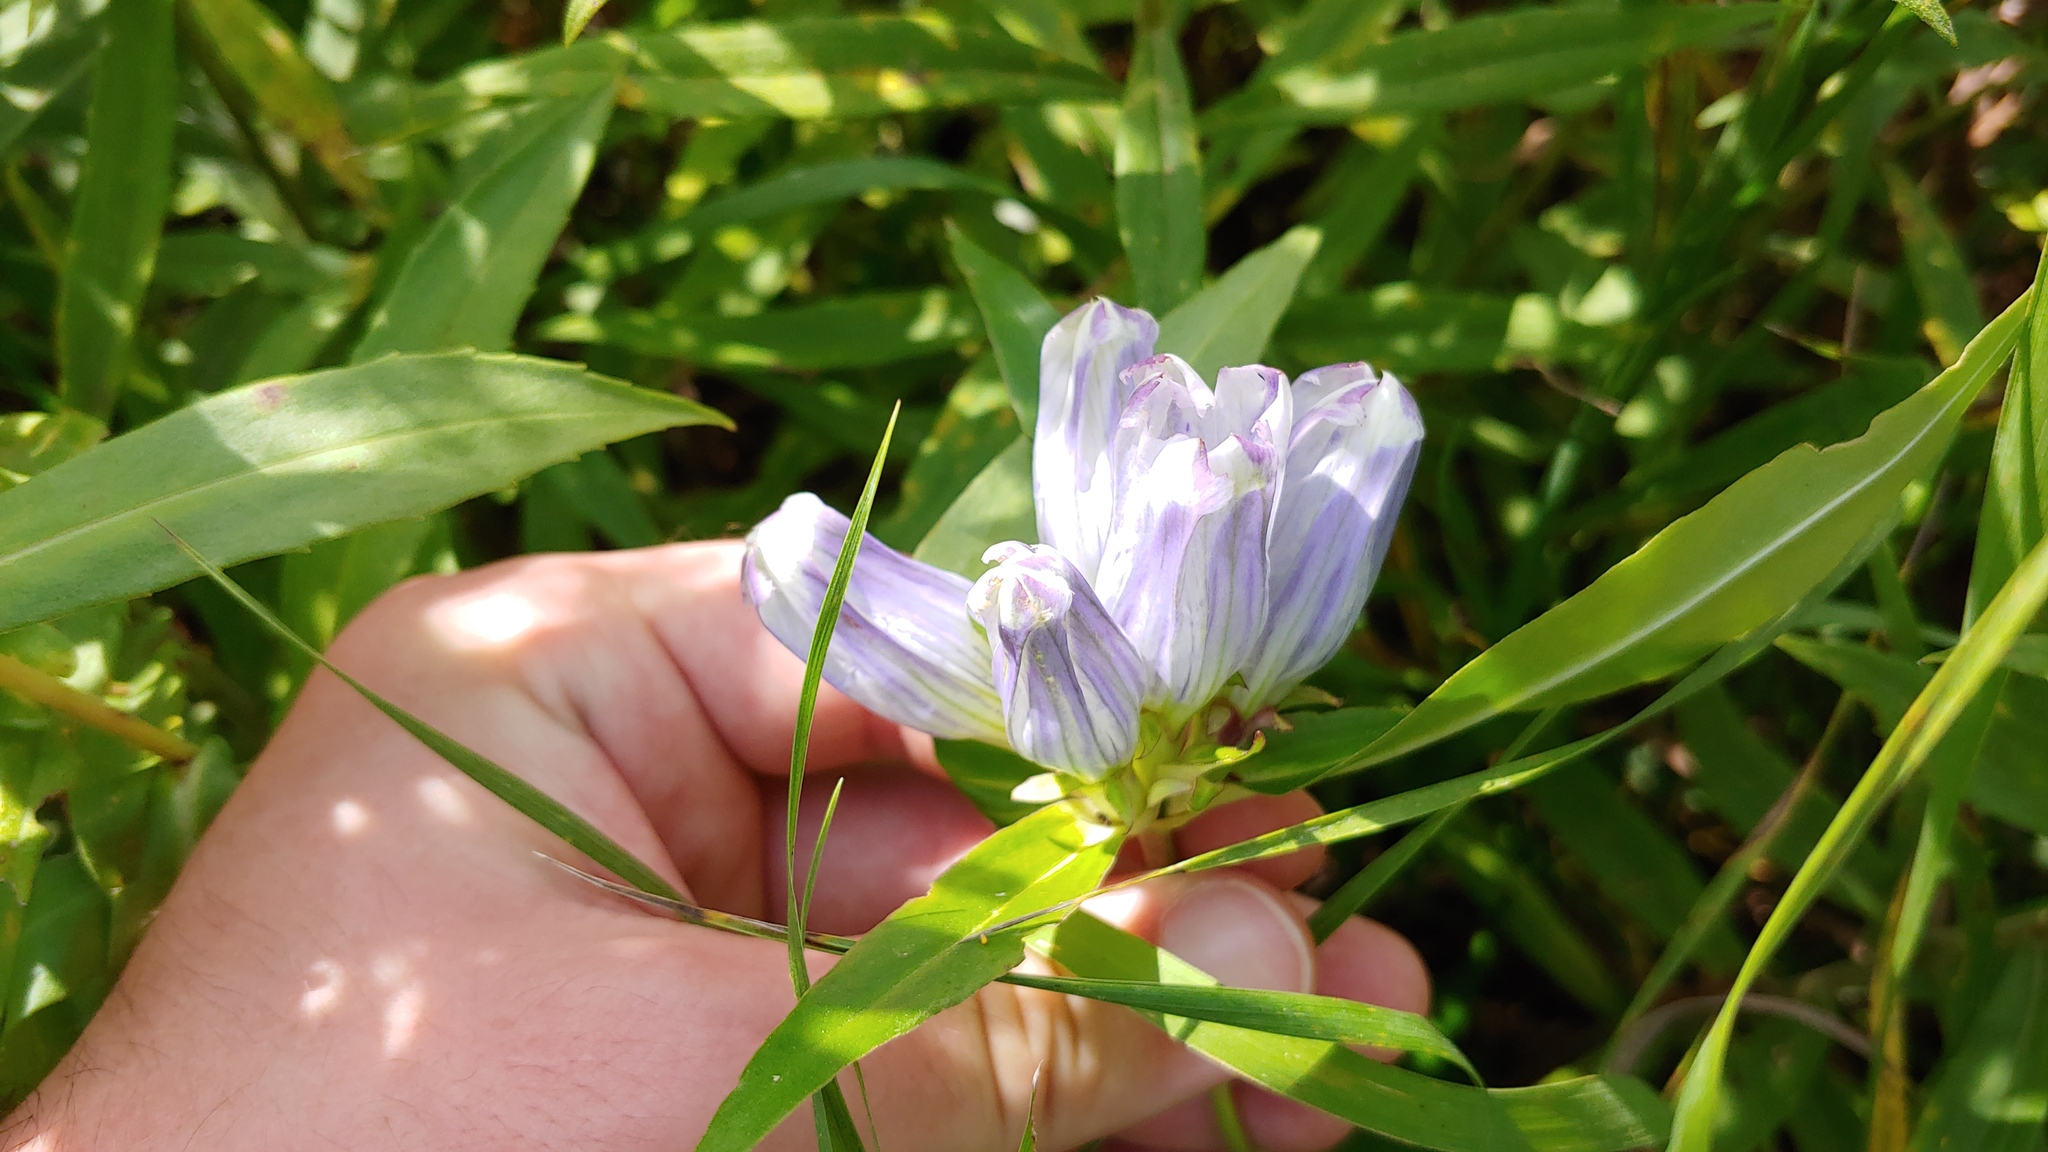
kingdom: Plantae
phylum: Tracheophyta
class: Magnoliopsida
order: Gentianales
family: Gentianaceae
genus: Gentiana
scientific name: Gentiana pallidocyanea
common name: Hybrid bottle gentian
